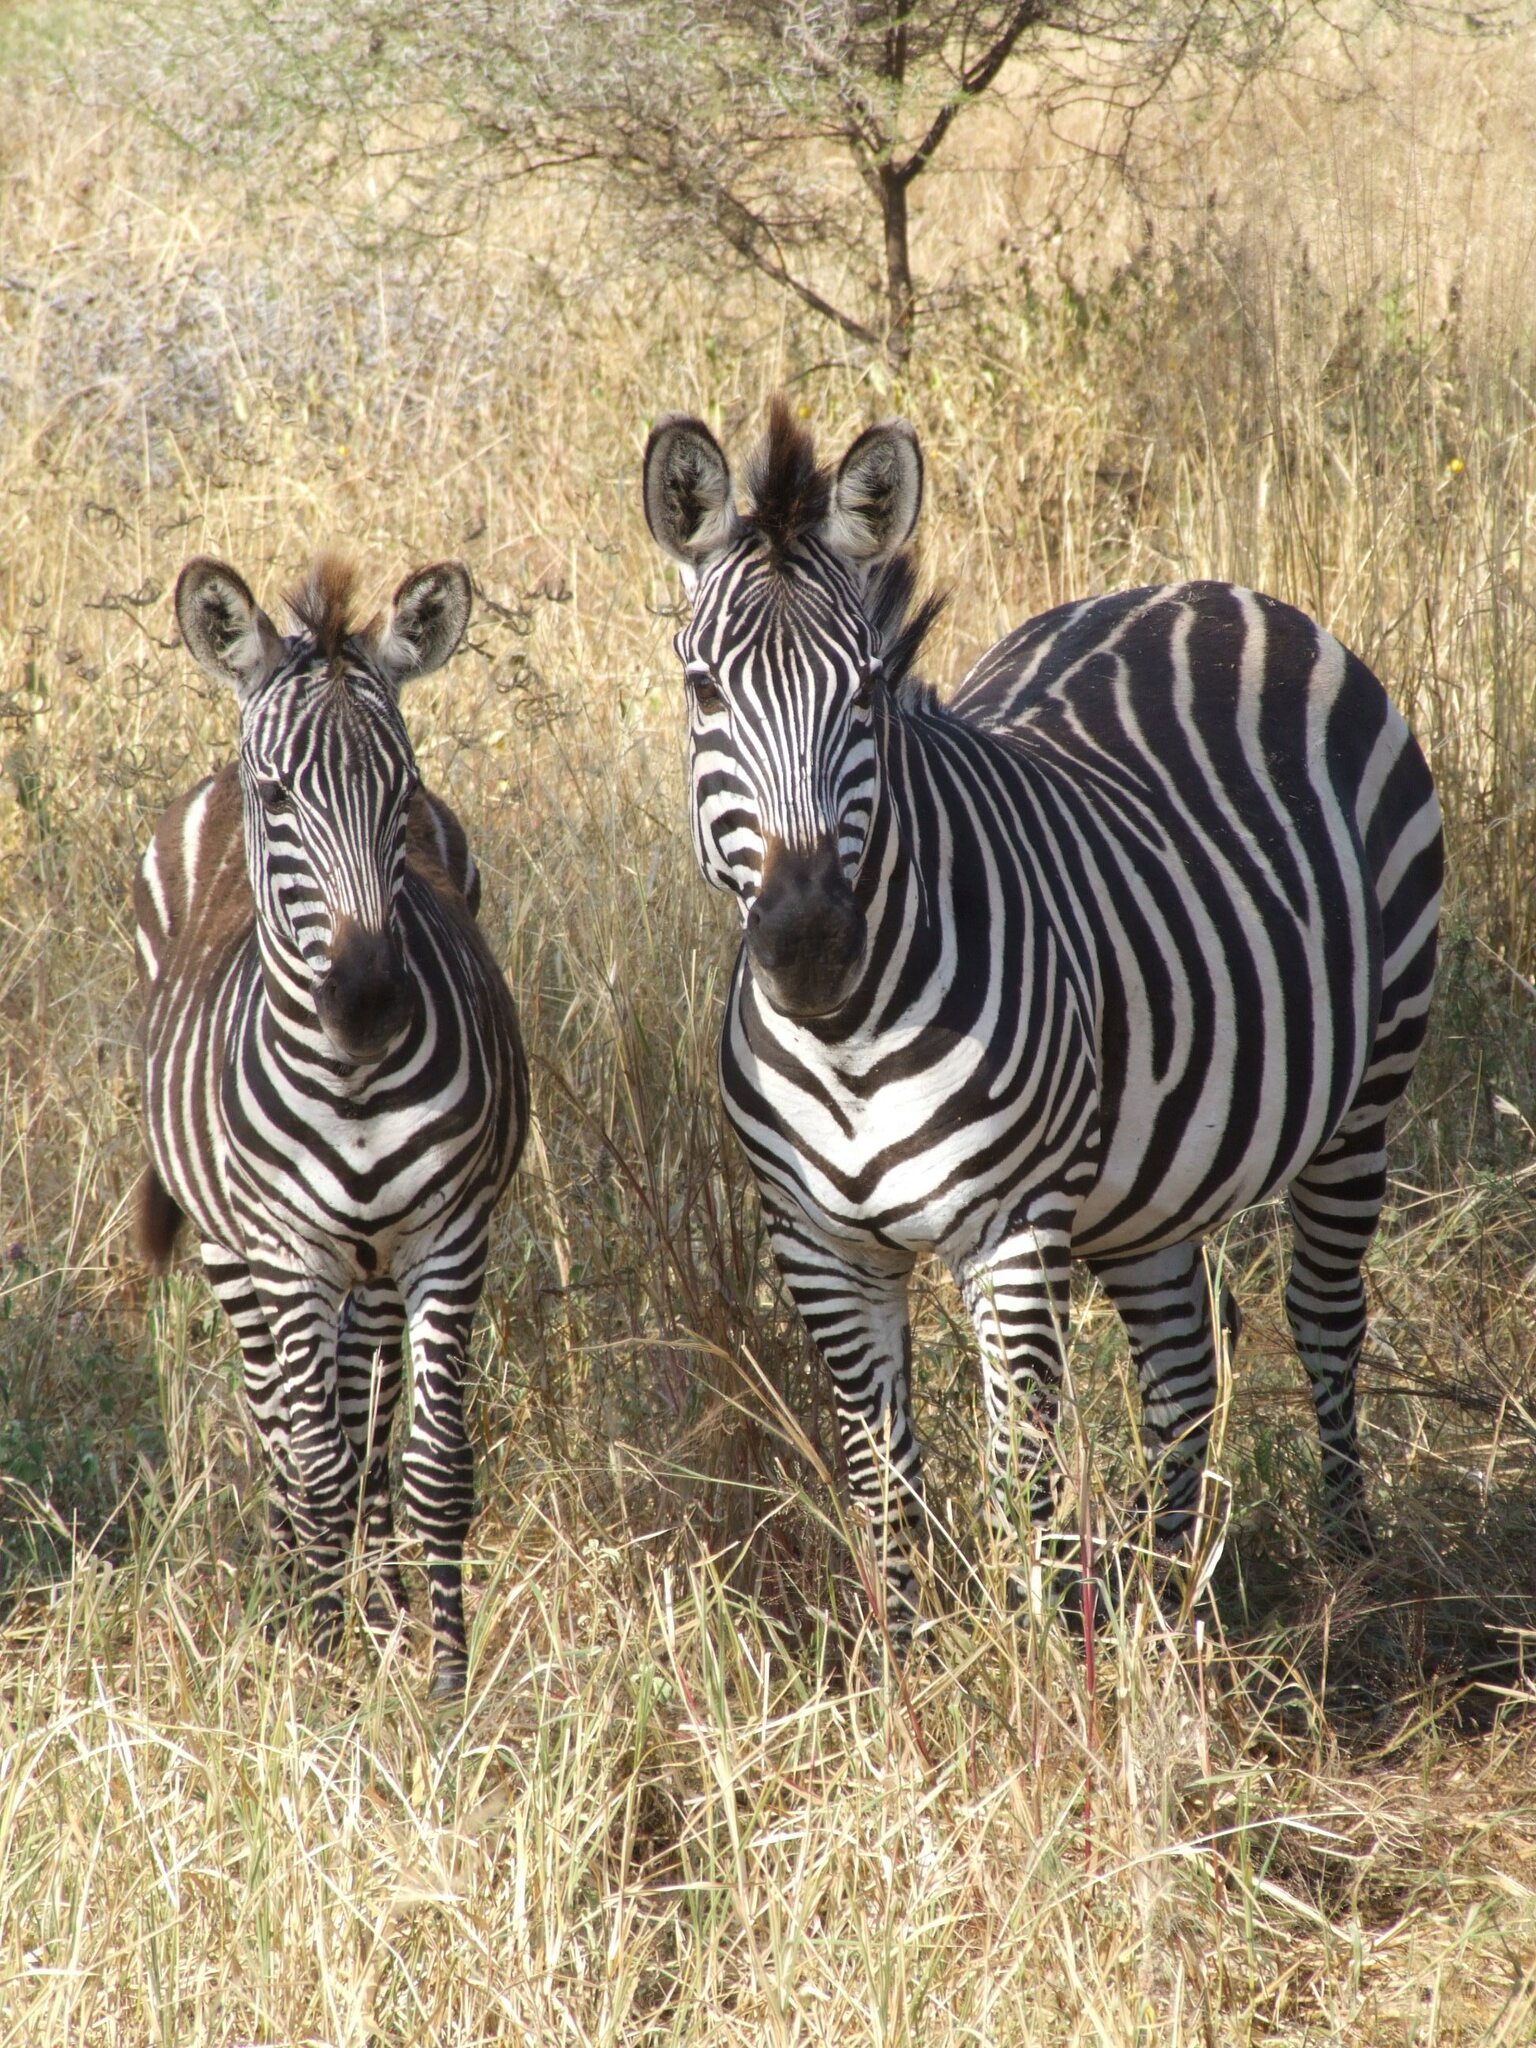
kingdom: Animalia
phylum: Chordata
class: Mammalia
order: Perissodactyla
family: Equidae
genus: Equus
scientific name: Equus quagga
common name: Plains zebra
